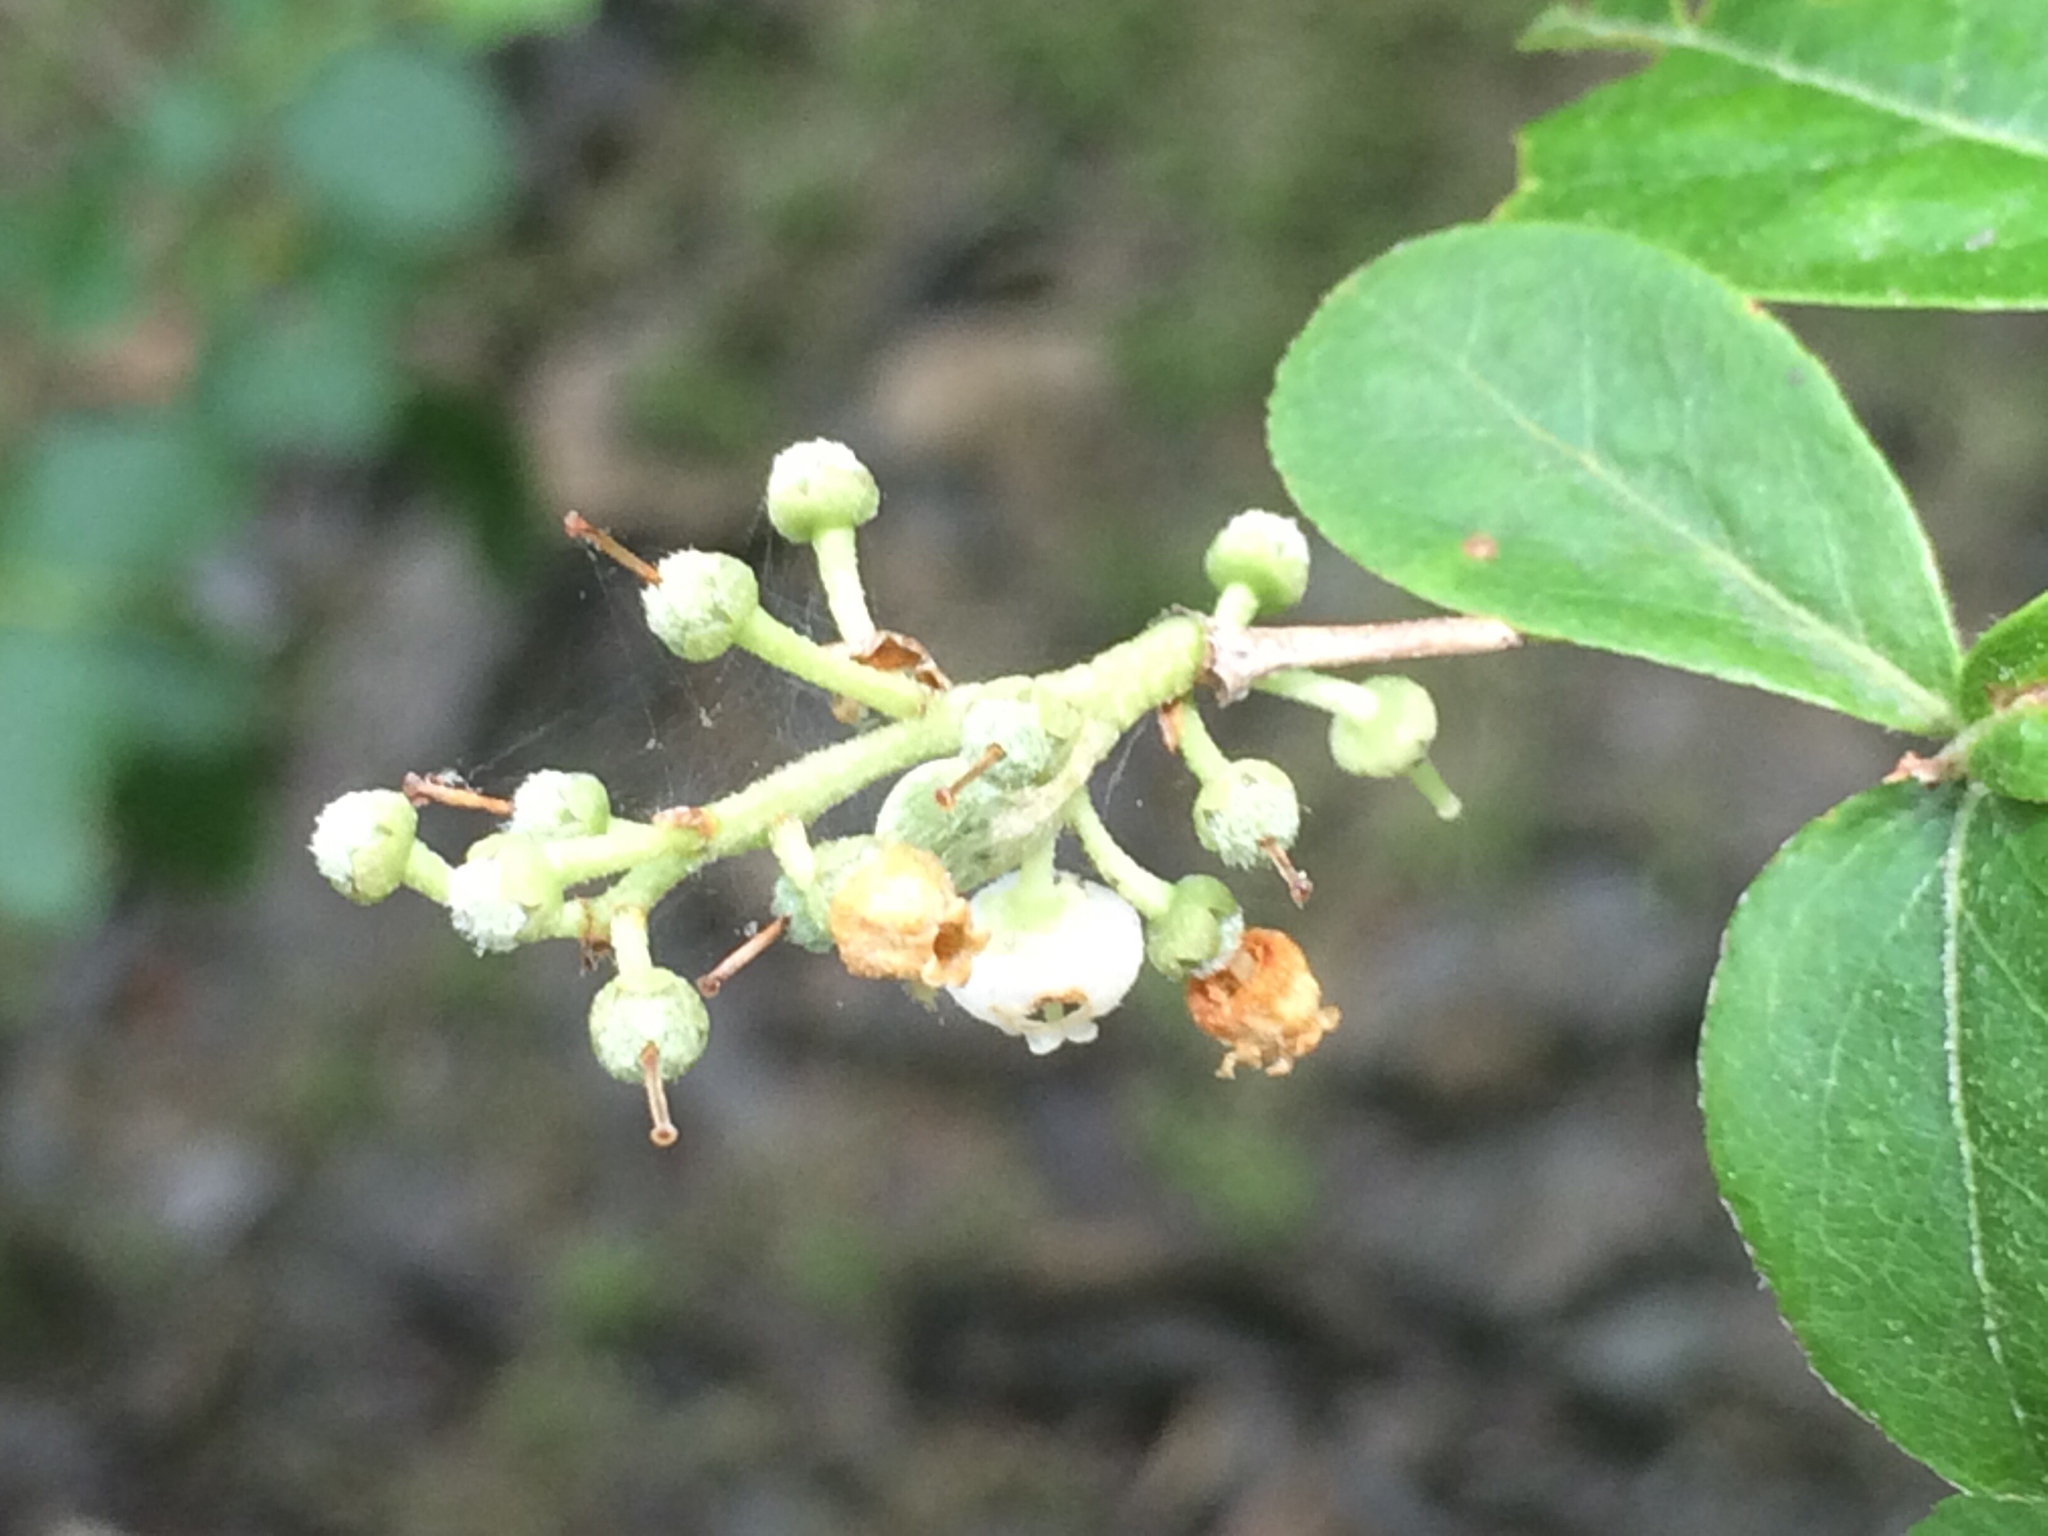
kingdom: Plantae
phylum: Tracheophyta
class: Magnoliopsida
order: Ericales
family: Ericaceae
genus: Lyonia
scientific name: Lyonia ligustrina
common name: Maleberry
